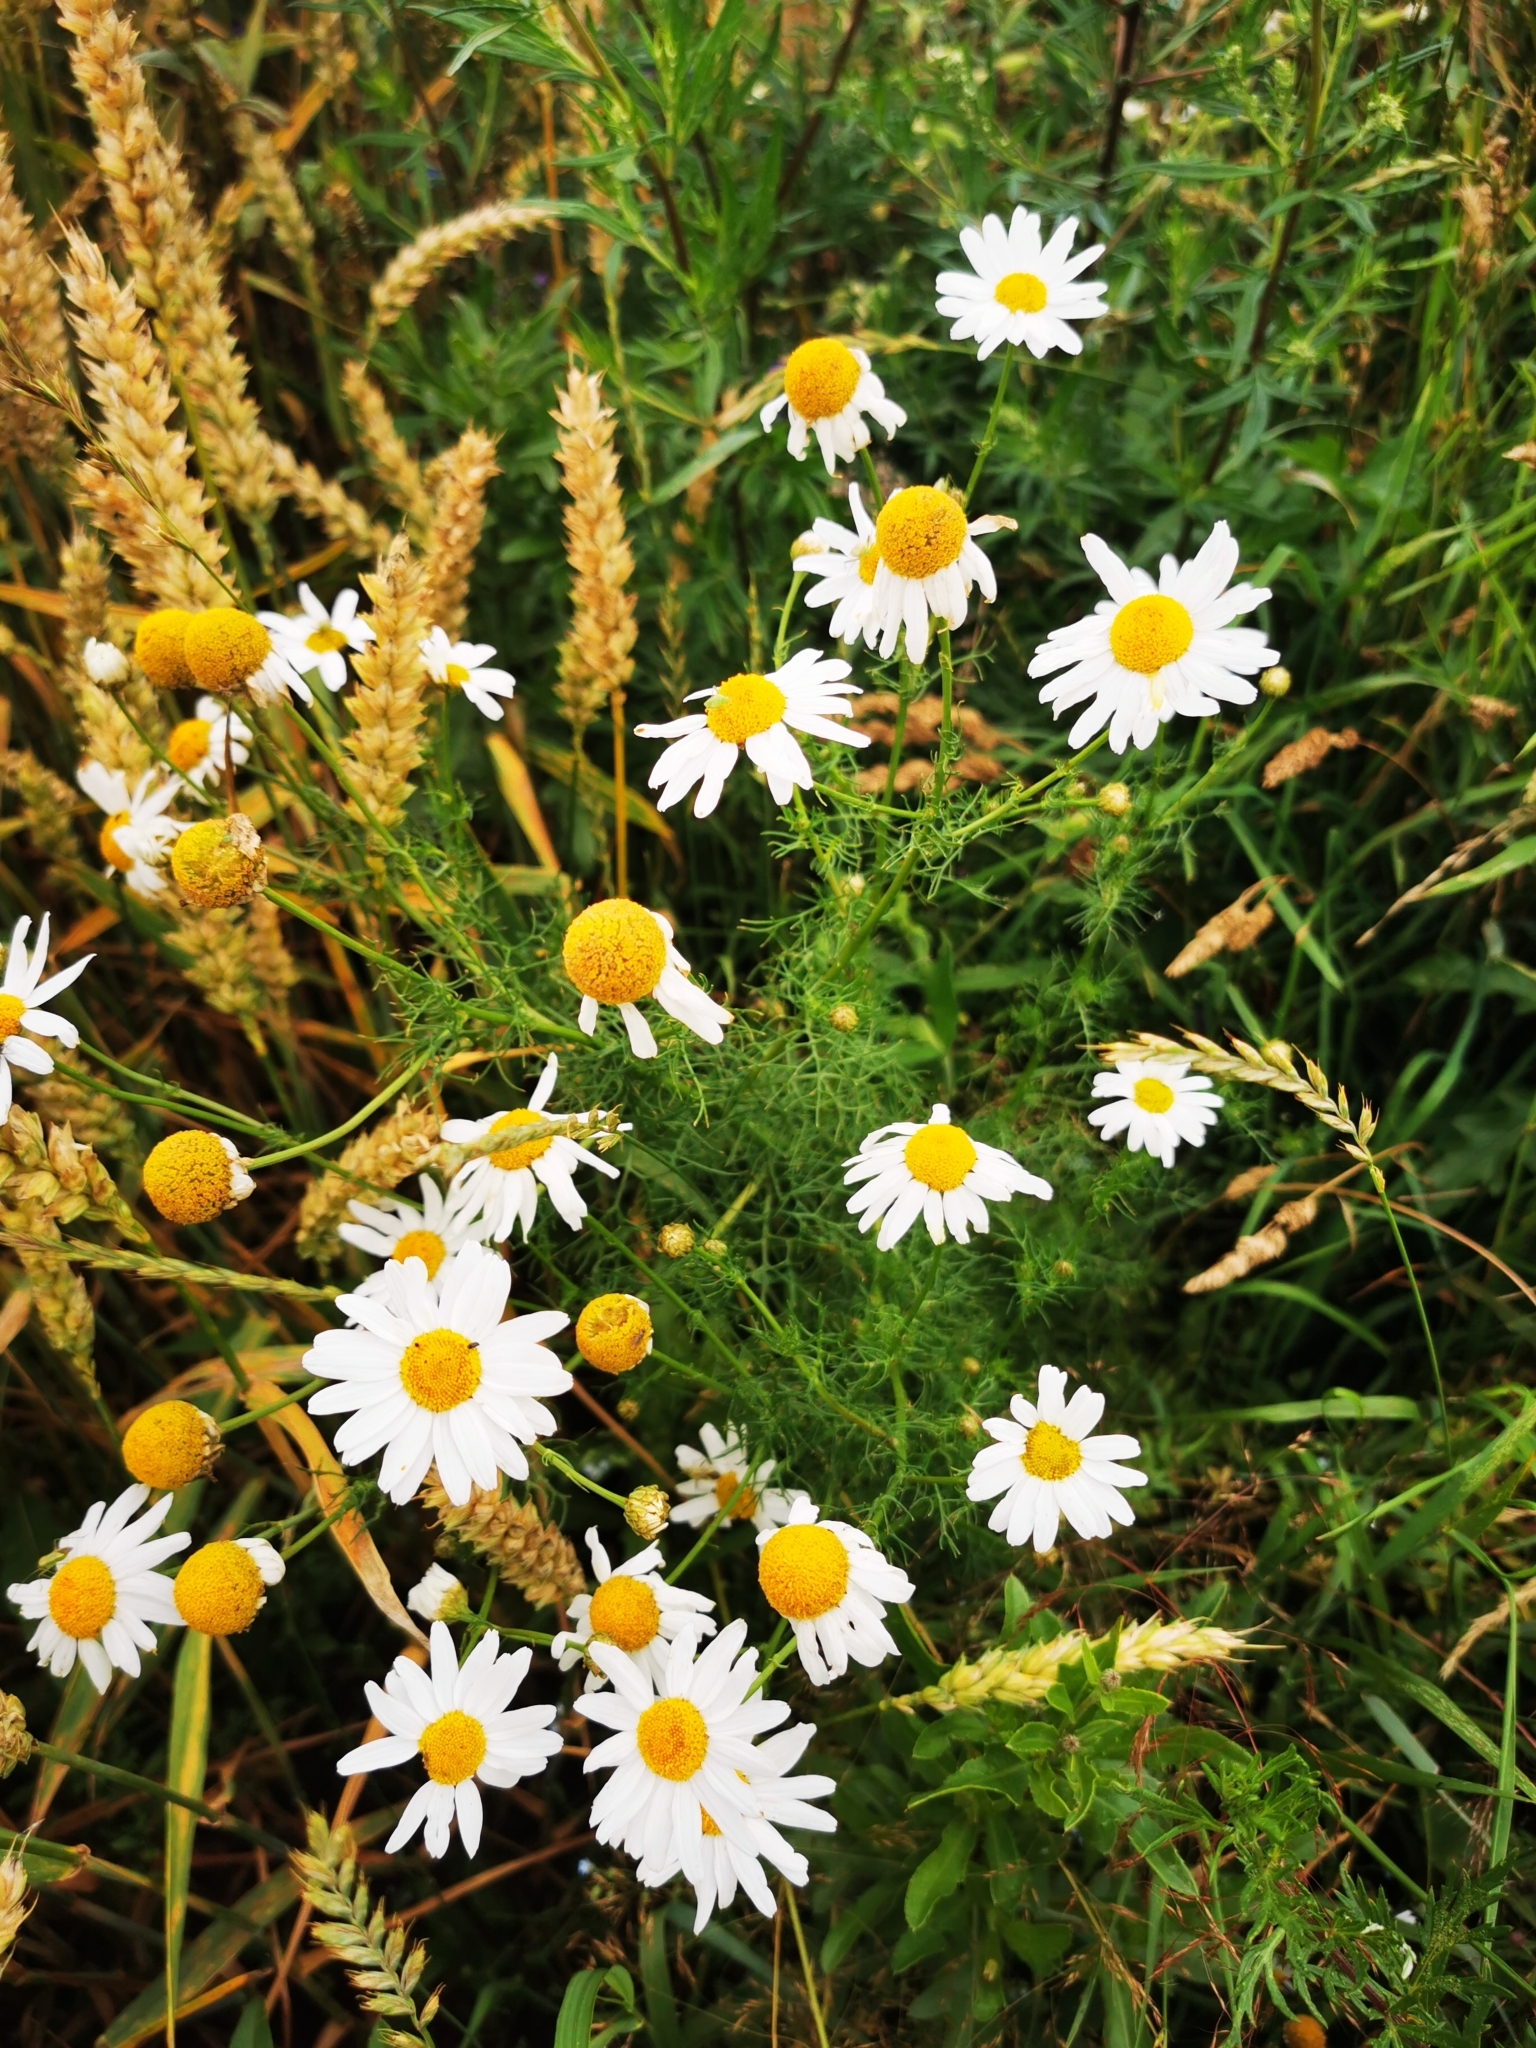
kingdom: Plantae
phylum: Tracheophyta
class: Magnoliopsida
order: Asterales
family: Asteraceae
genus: Tripleurospermum
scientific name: Tripleurospermum inodorum
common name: Scentless mayweed
